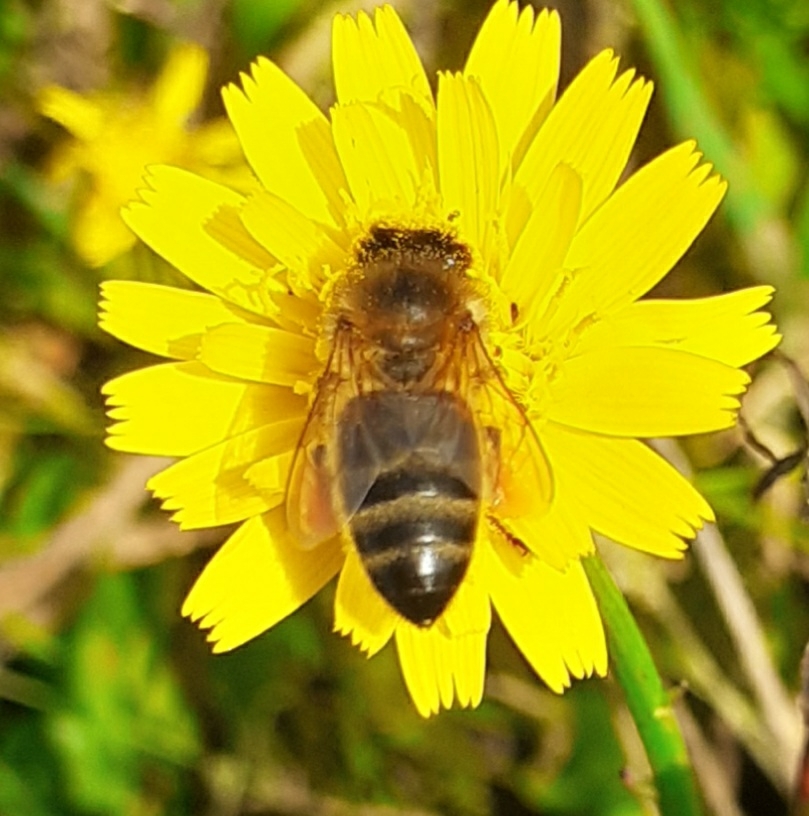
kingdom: Animalia
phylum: Arthropoda
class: Insecta
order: Hymenoptera
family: Apidae
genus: Apis
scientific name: Apis mellifera
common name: Honey bee
